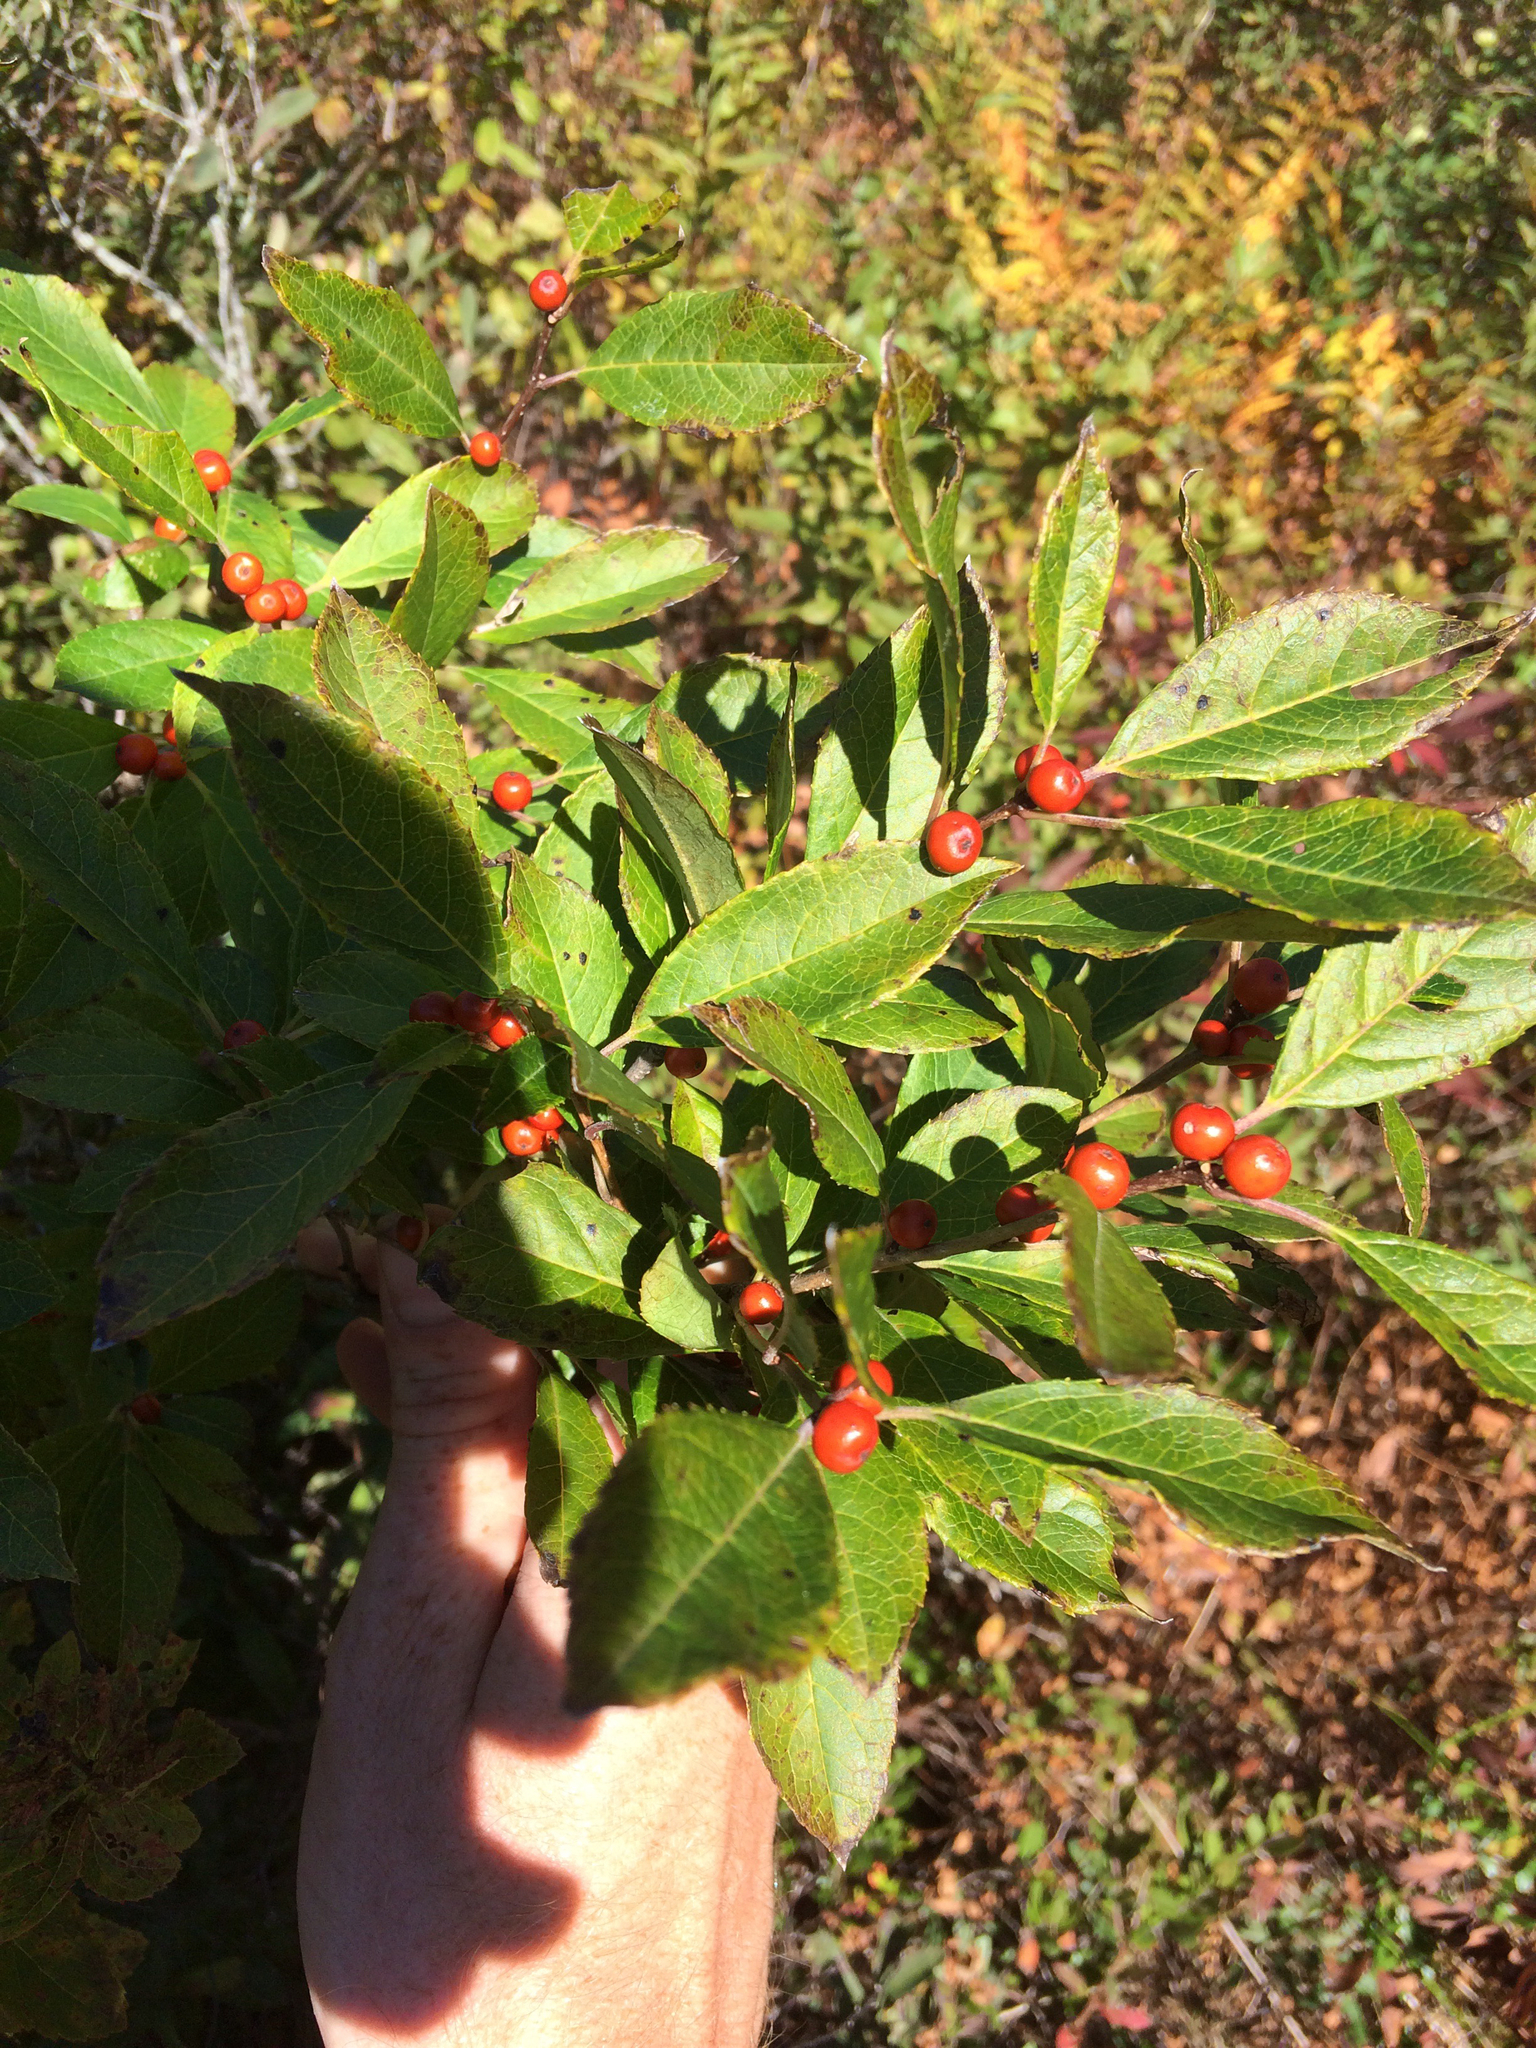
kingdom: Plantae
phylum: Tracheophyta
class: Magnoliopsida
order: Aquifoliales
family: Aquifoliaceae
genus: Ilex
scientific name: Ilex verticillata
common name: Virginia winterberry
